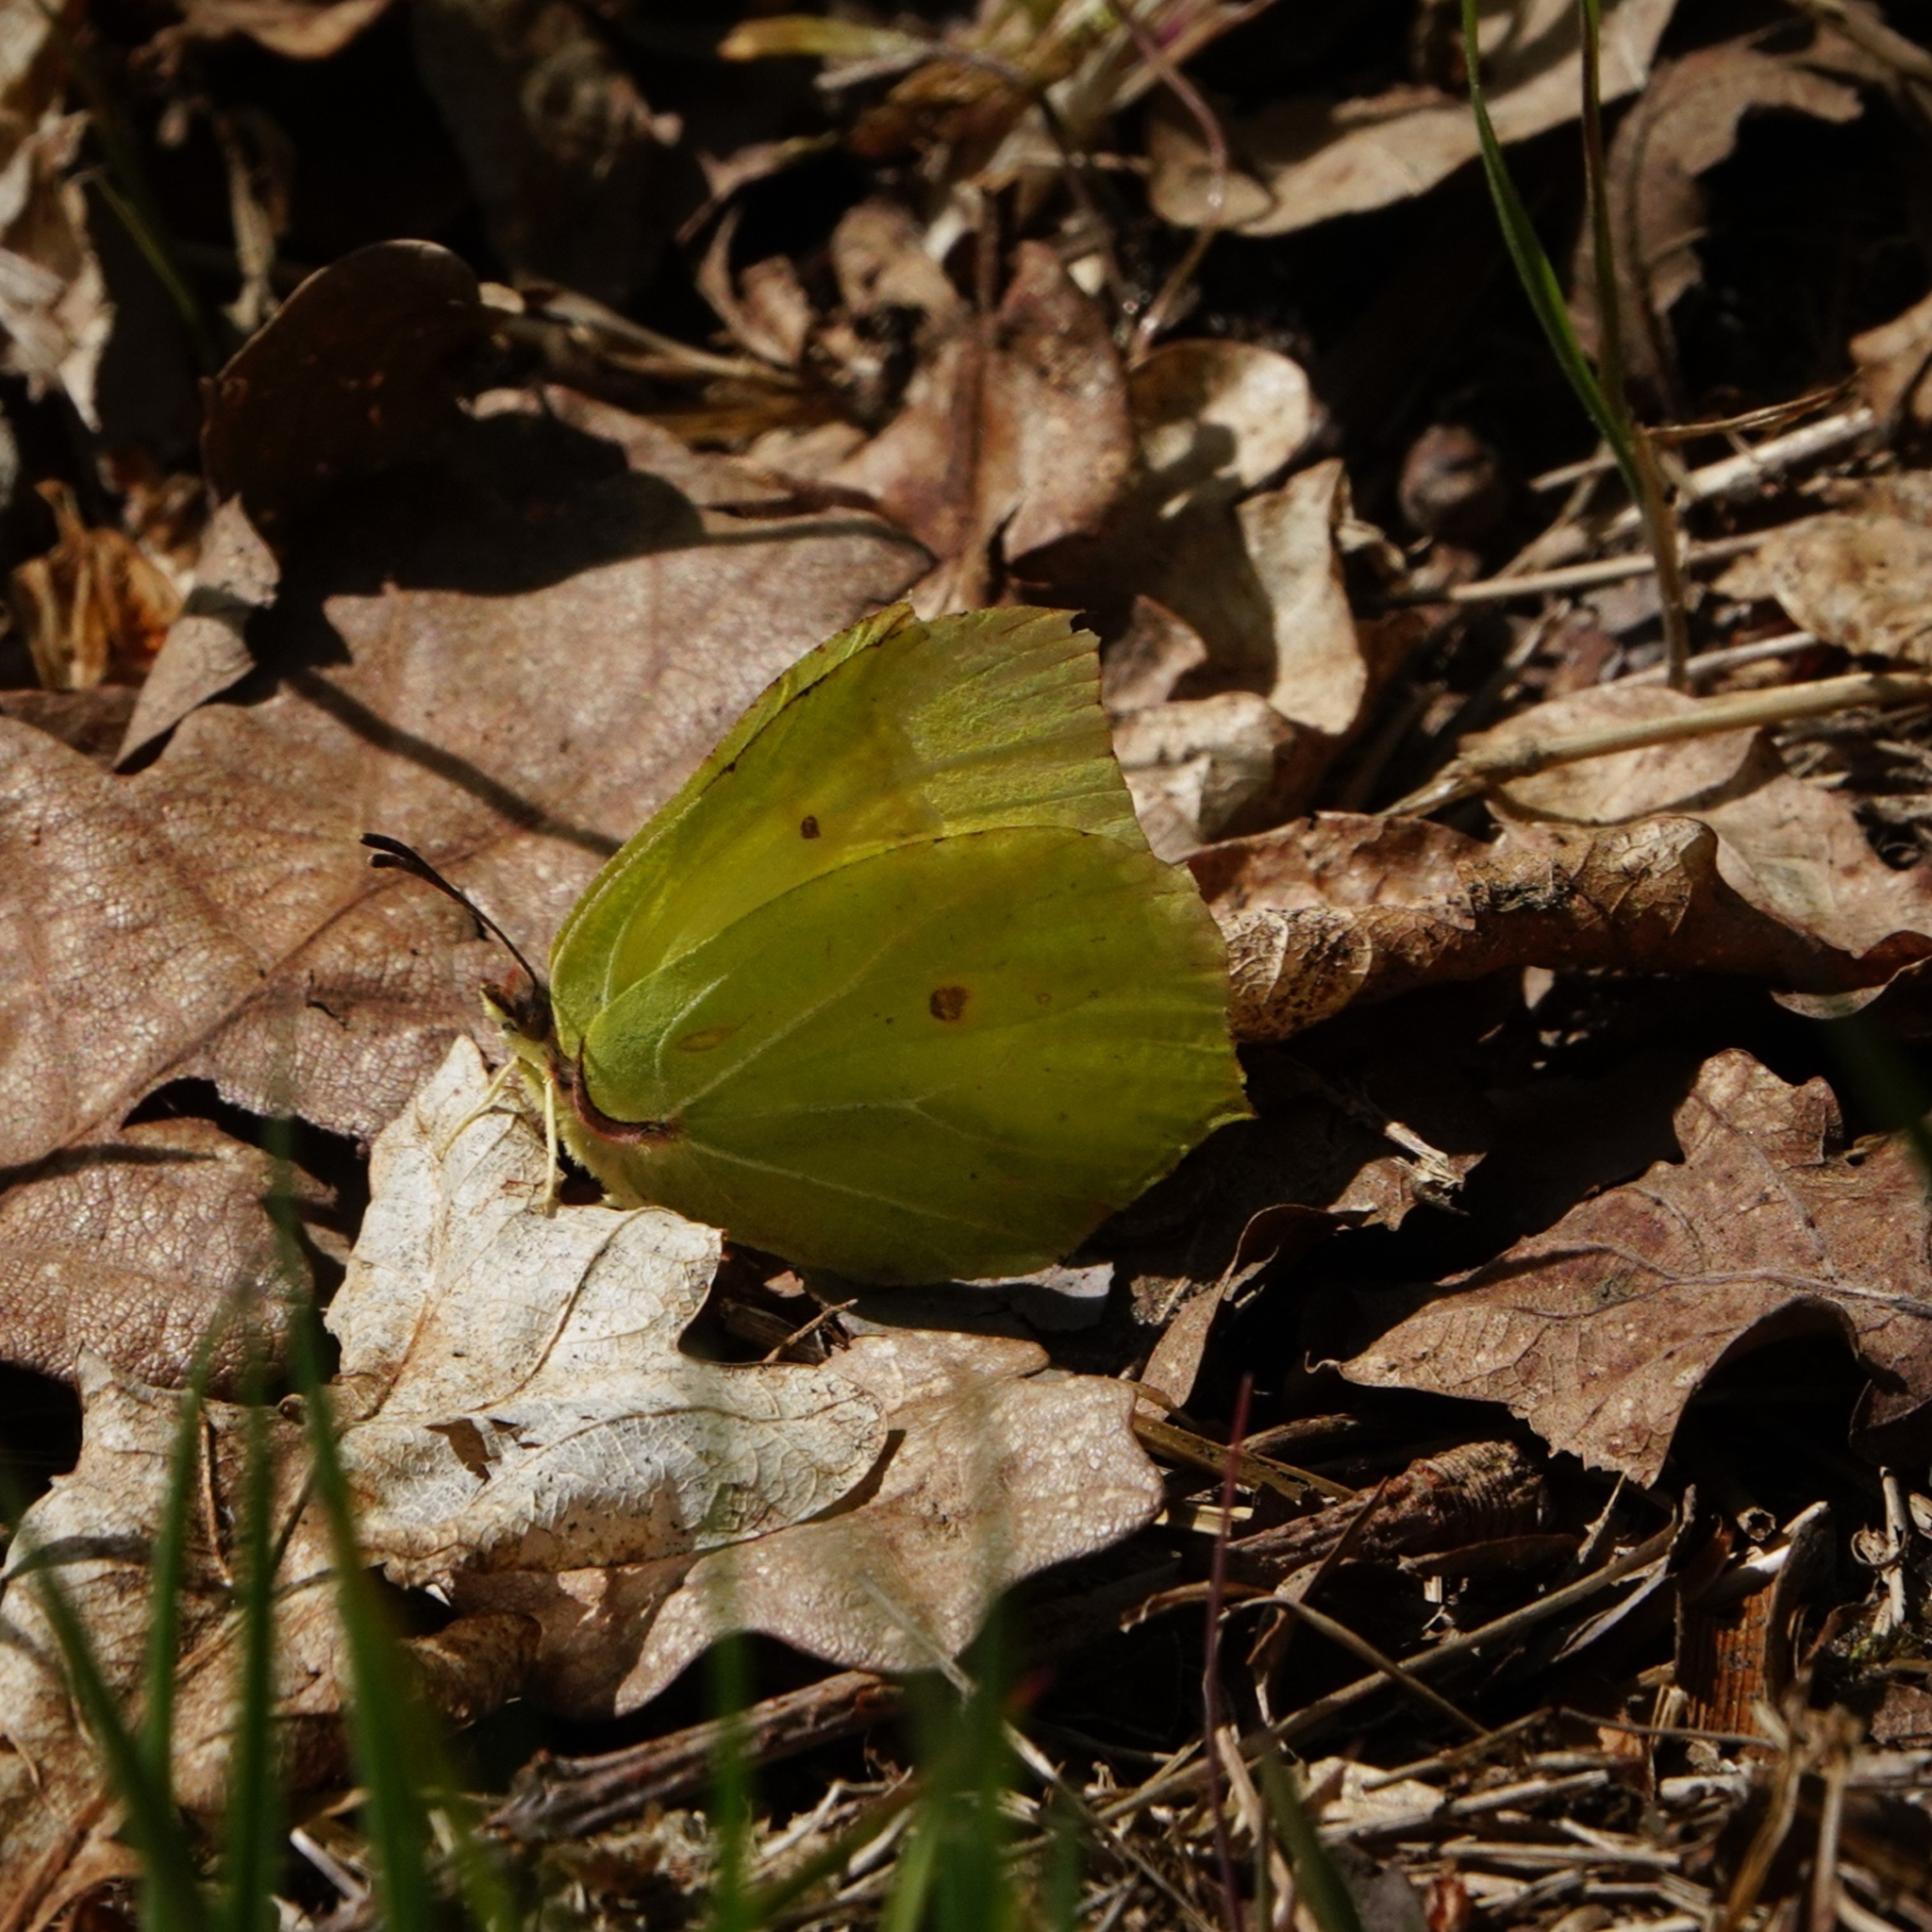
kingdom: Animalia
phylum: Arthropoda
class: Insecta
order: Lepidoptera
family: Pieridae
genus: Gonepteryx
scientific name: Gonepteryx rhamni
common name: Brimstone
